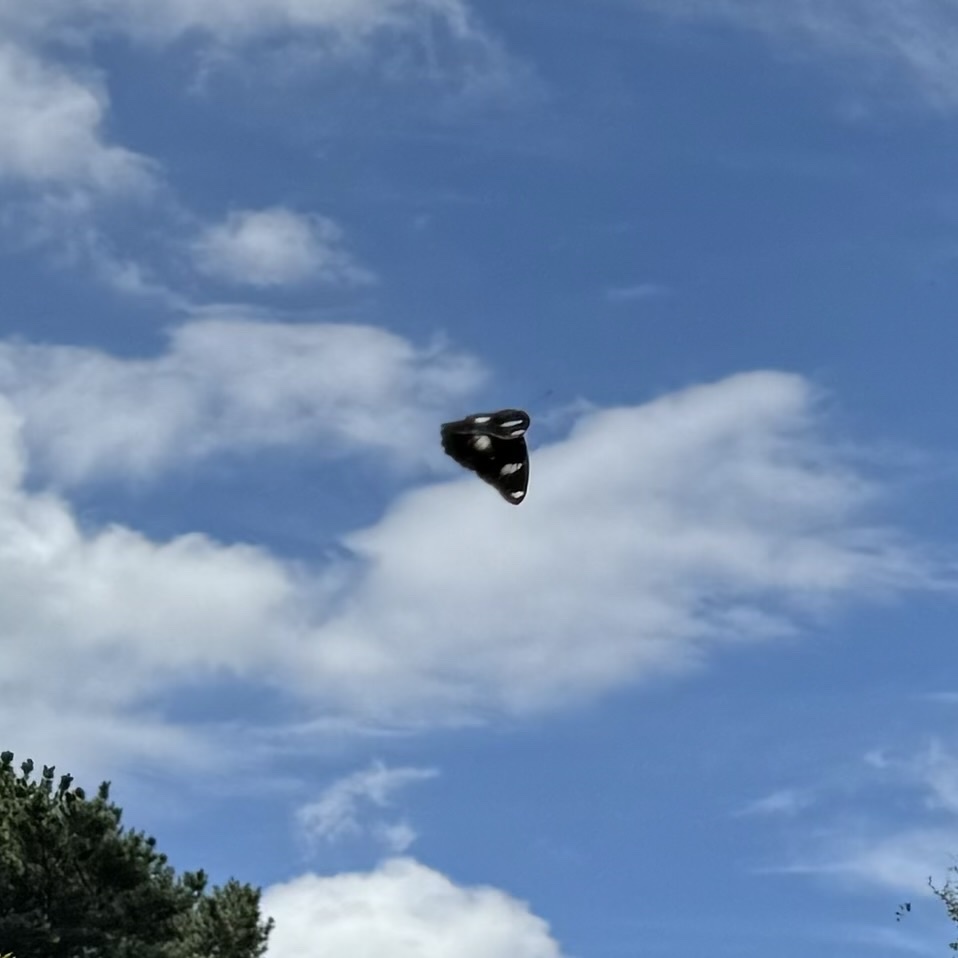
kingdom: Animalia
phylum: Arthropoda
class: Insecta
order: Lepidoptera
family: Nymphalidae
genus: Hypolimnas
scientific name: Hypolimnas bolina
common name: Great eggfly
